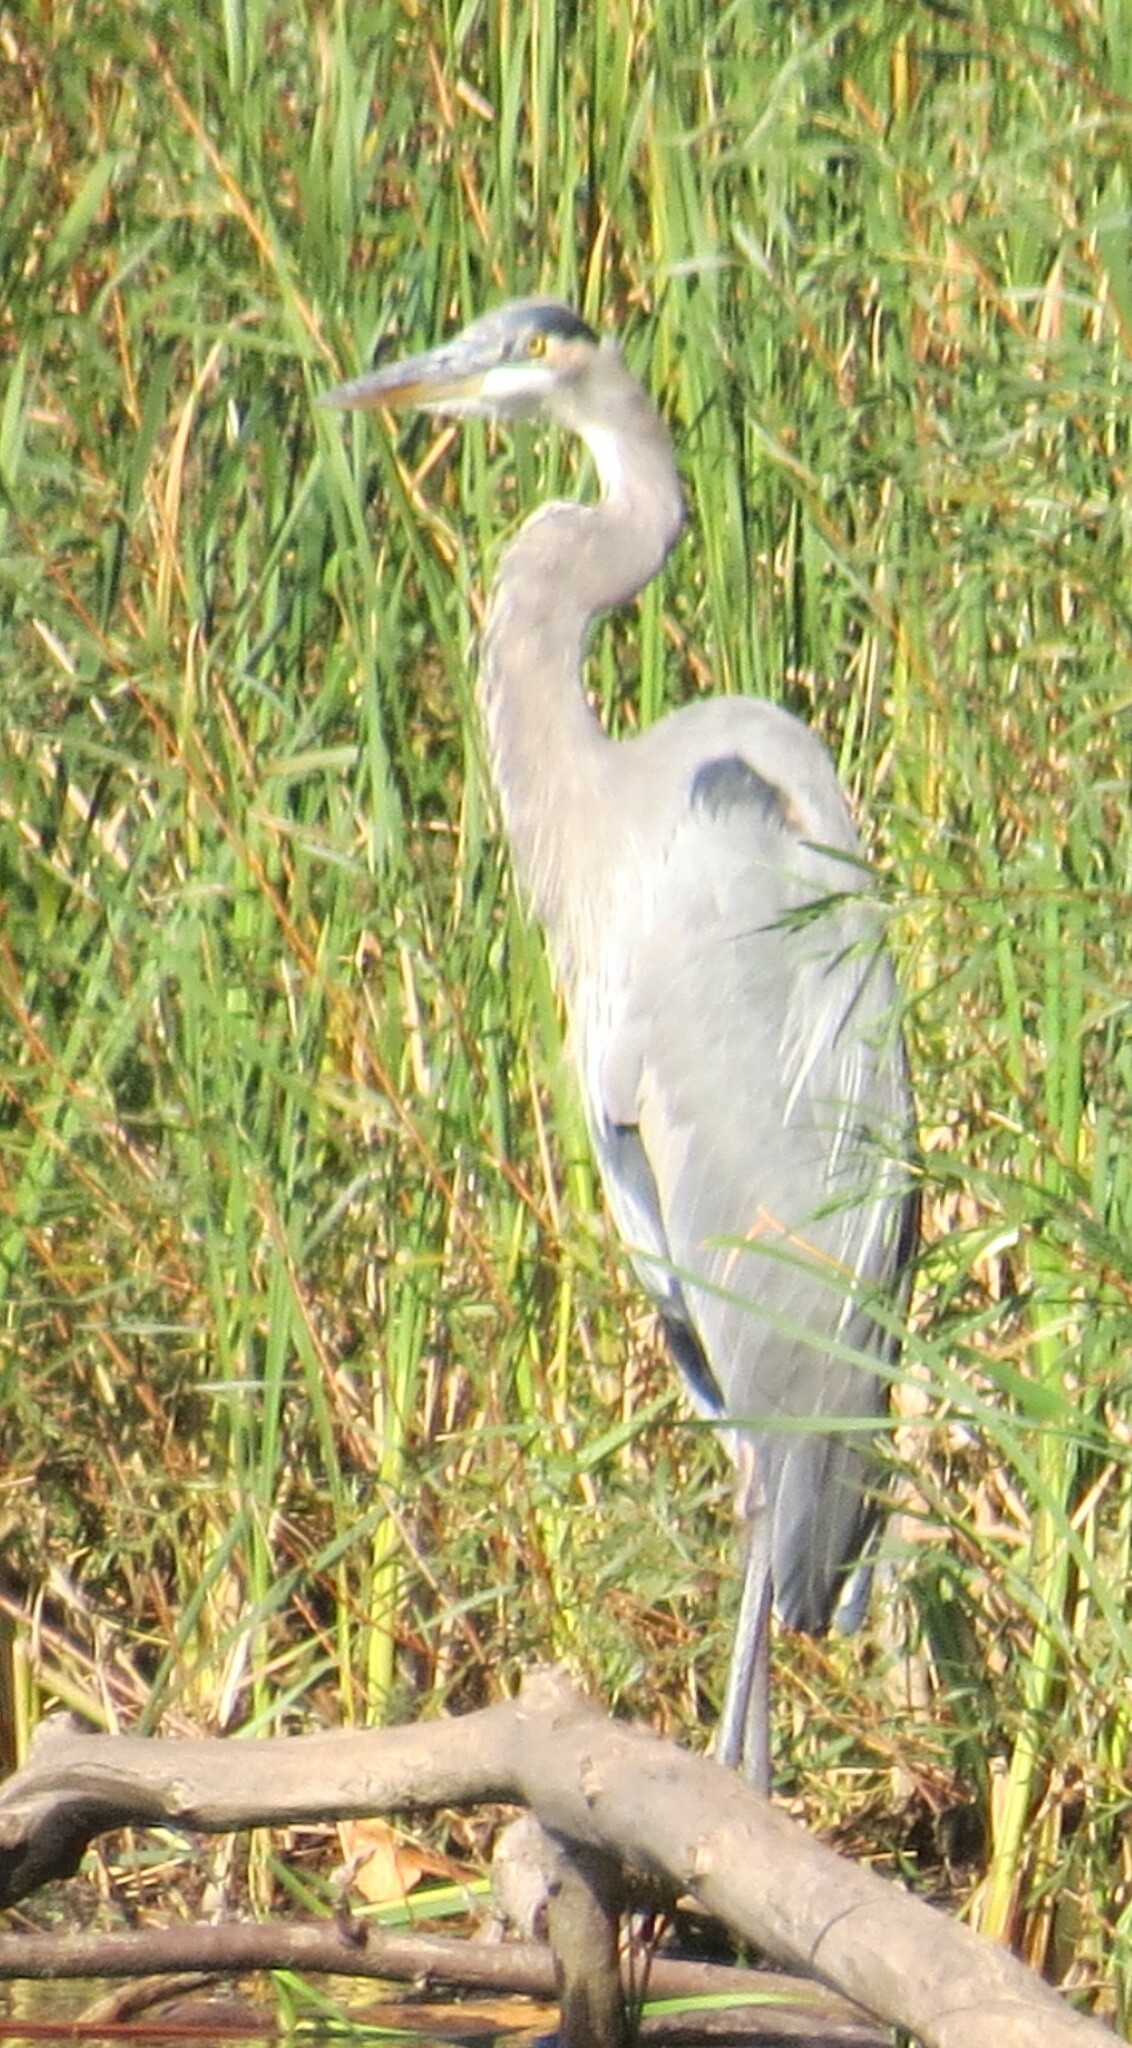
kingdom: Animalia
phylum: Chordata
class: Aves
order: Pelecaniformes
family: Ardeidae
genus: Ardea
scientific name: Ardea herodias
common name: Great blue heron
